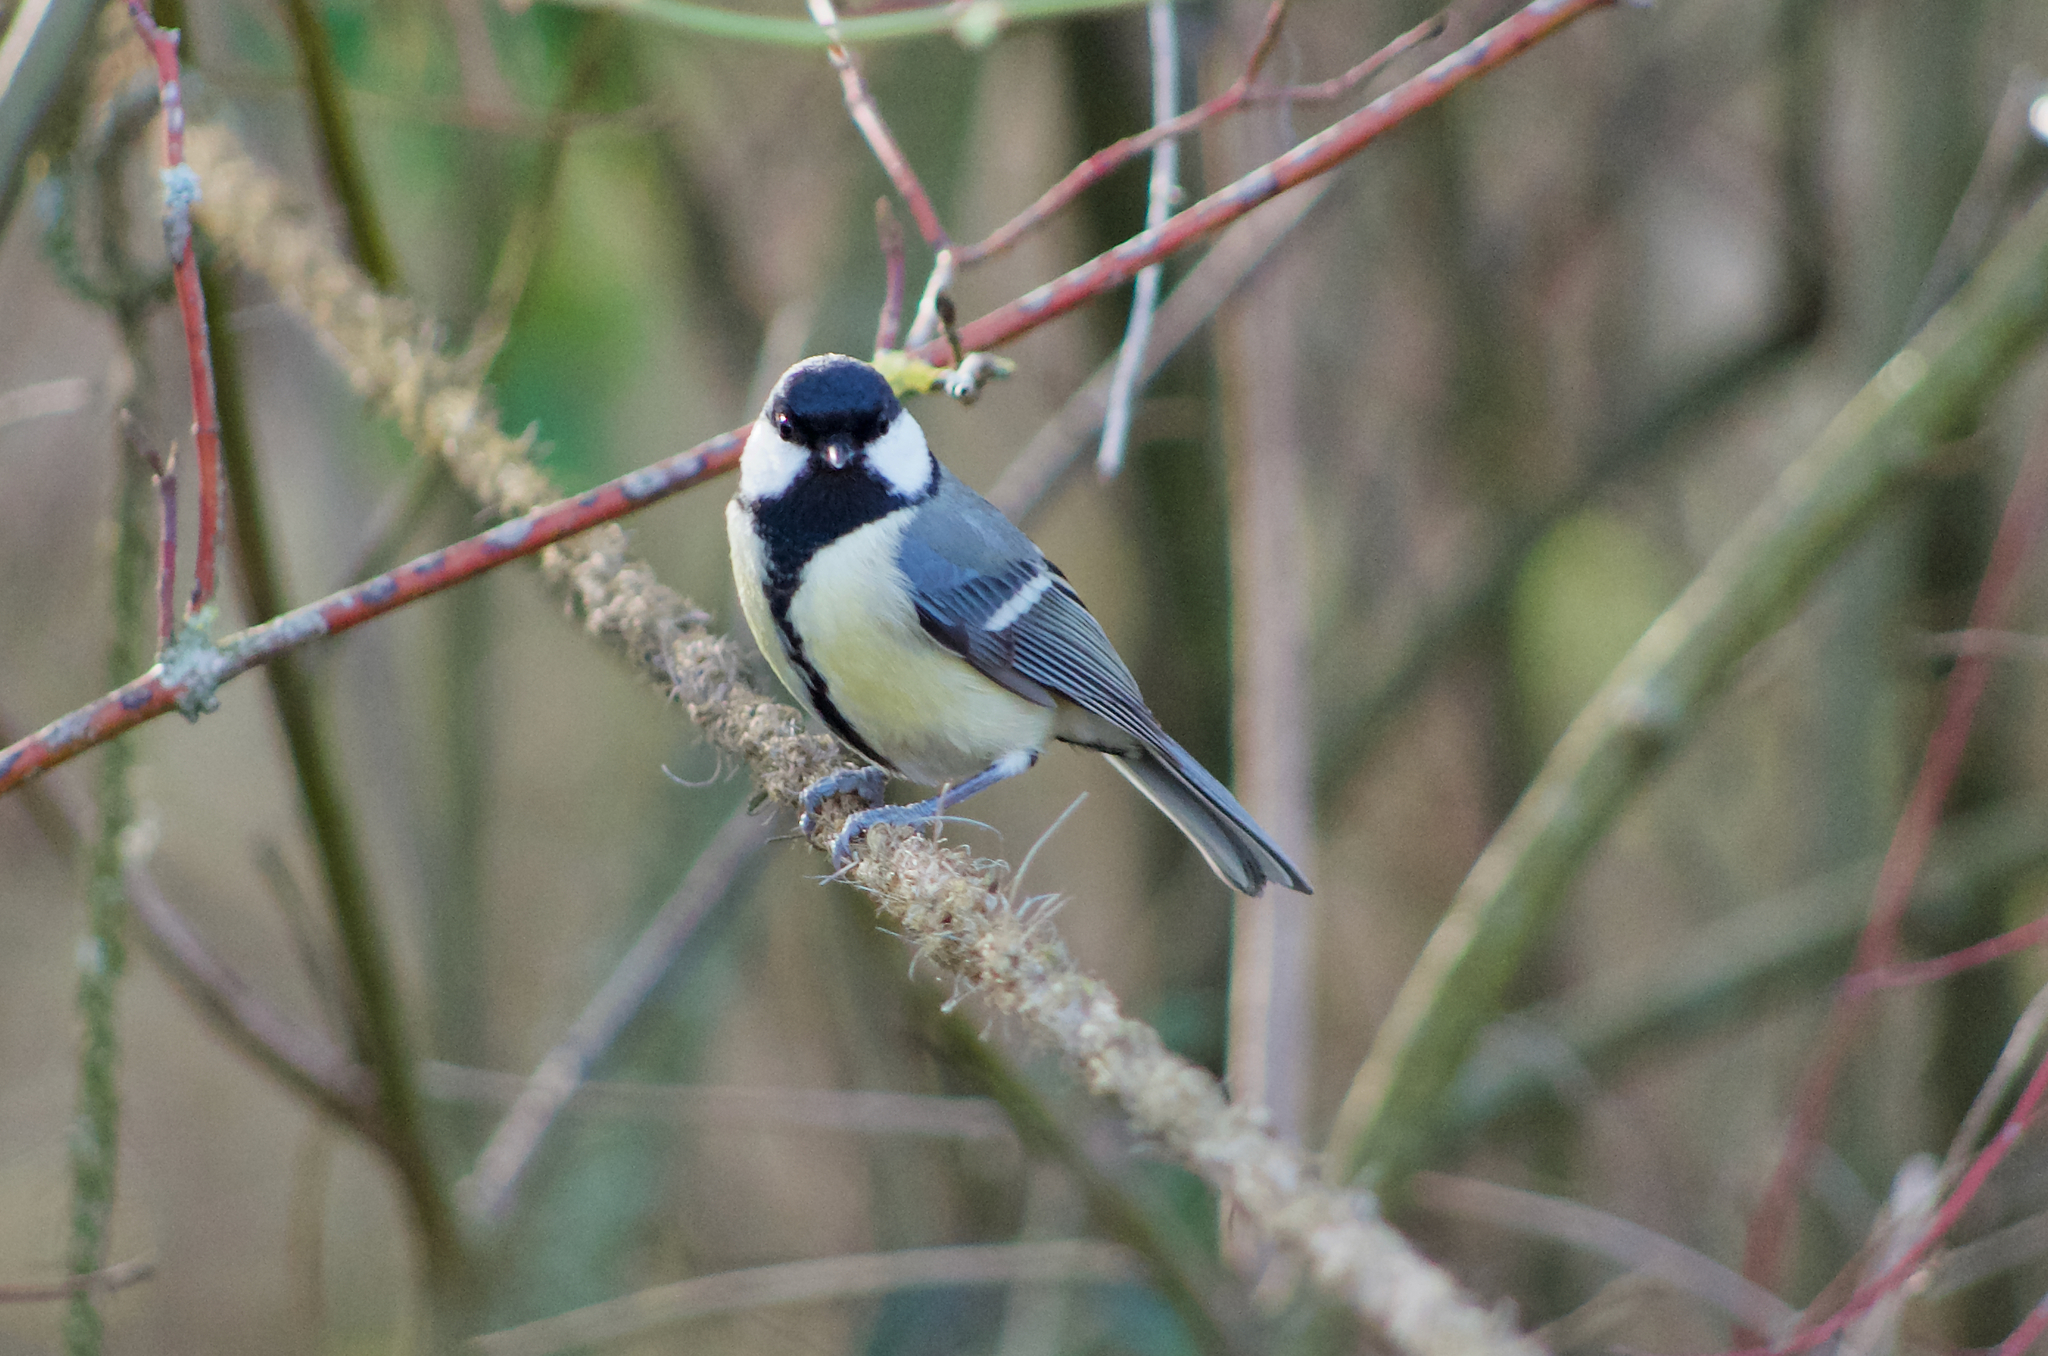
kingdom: Animalia
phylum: Chordata
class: Aves
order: Passeriformes
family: Paridae
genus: Parus
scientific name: Parus major
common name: Great tit
